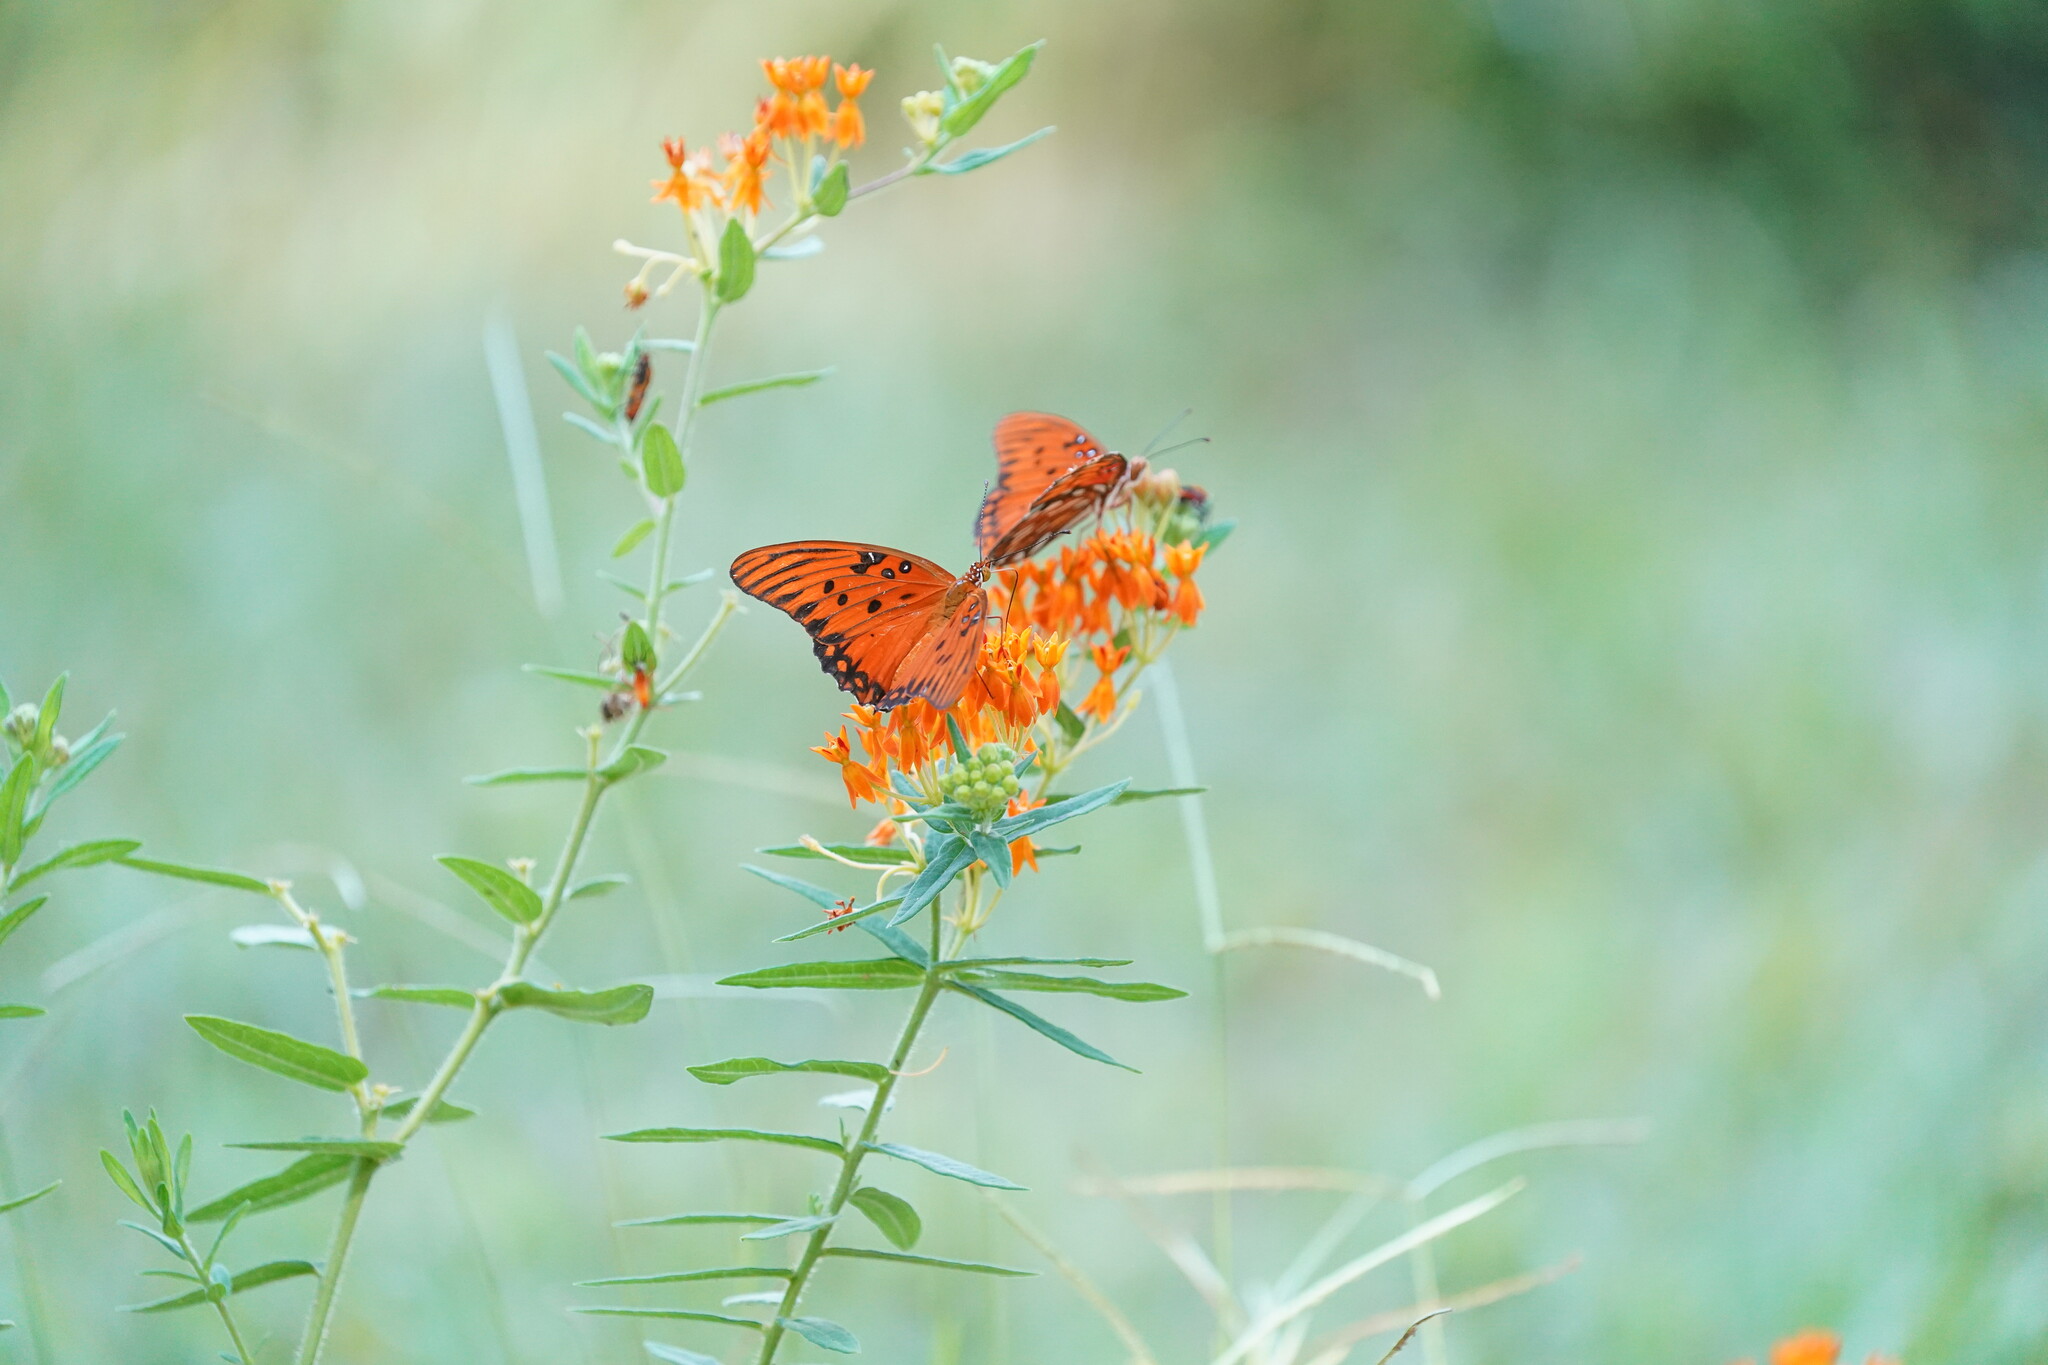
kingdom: Animalia
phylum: Arthropoda
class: Insecta
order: Lepidoptera
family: Nymphalidae
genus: Dione
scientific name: Dione vanillae
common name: Gulf fritillary
